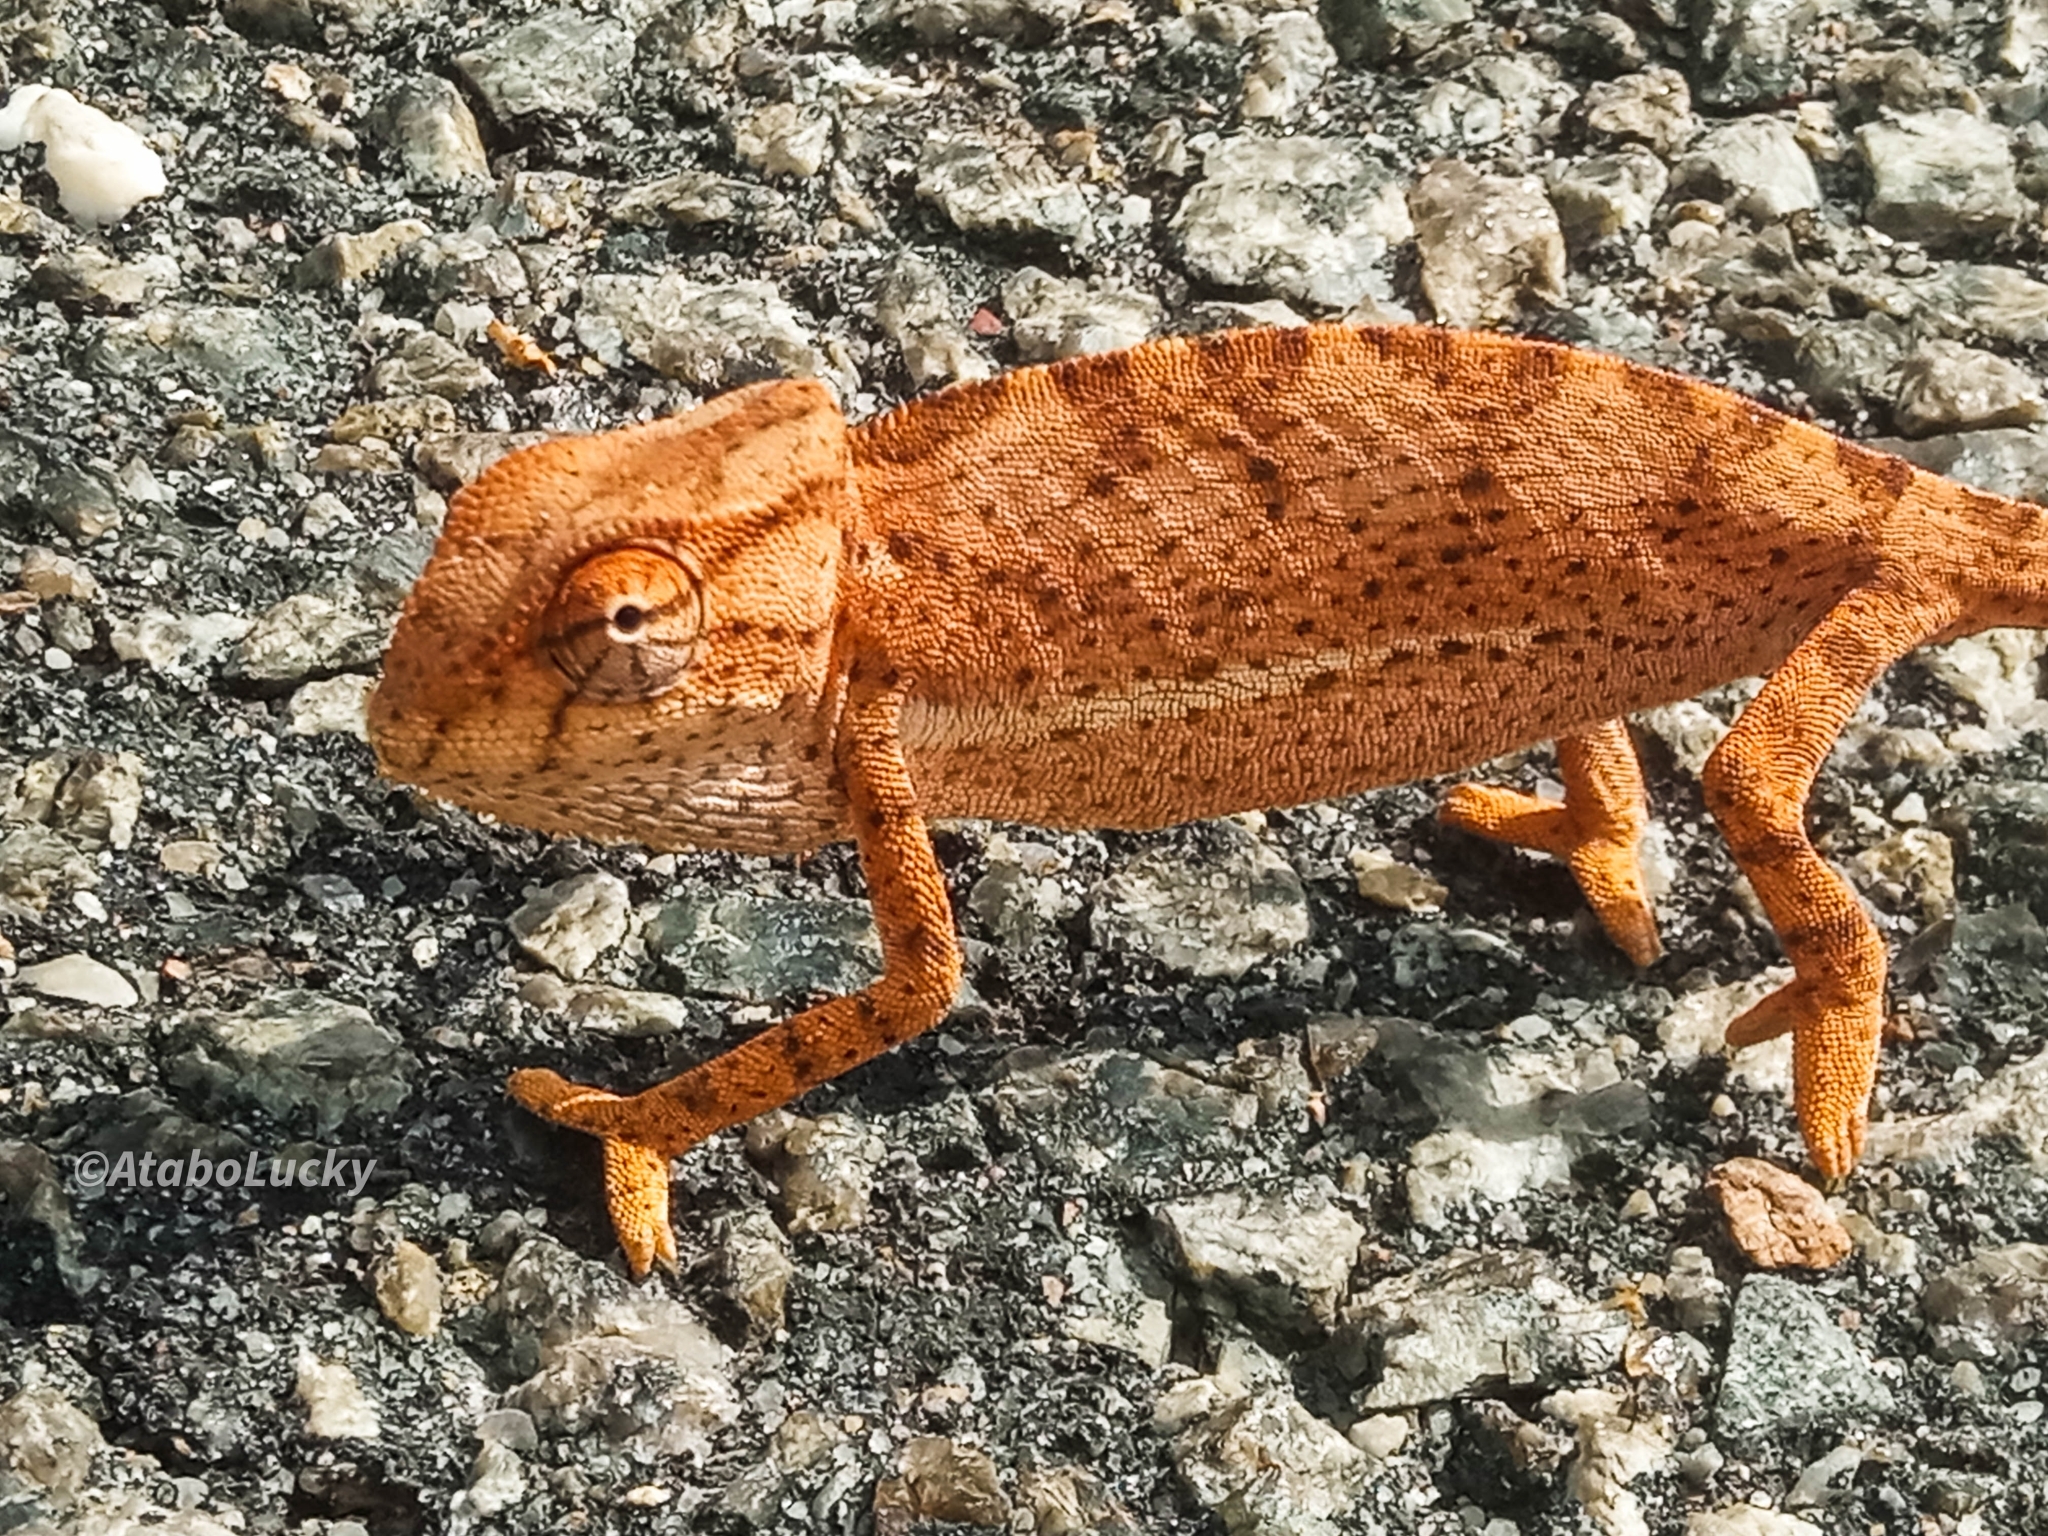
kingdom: Animalia
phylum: Chordata
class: Squamata
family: Chamaeleonidae
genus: Chamaeleo
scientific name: Chamaeleo senegalensis
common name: Senegal chameleon
